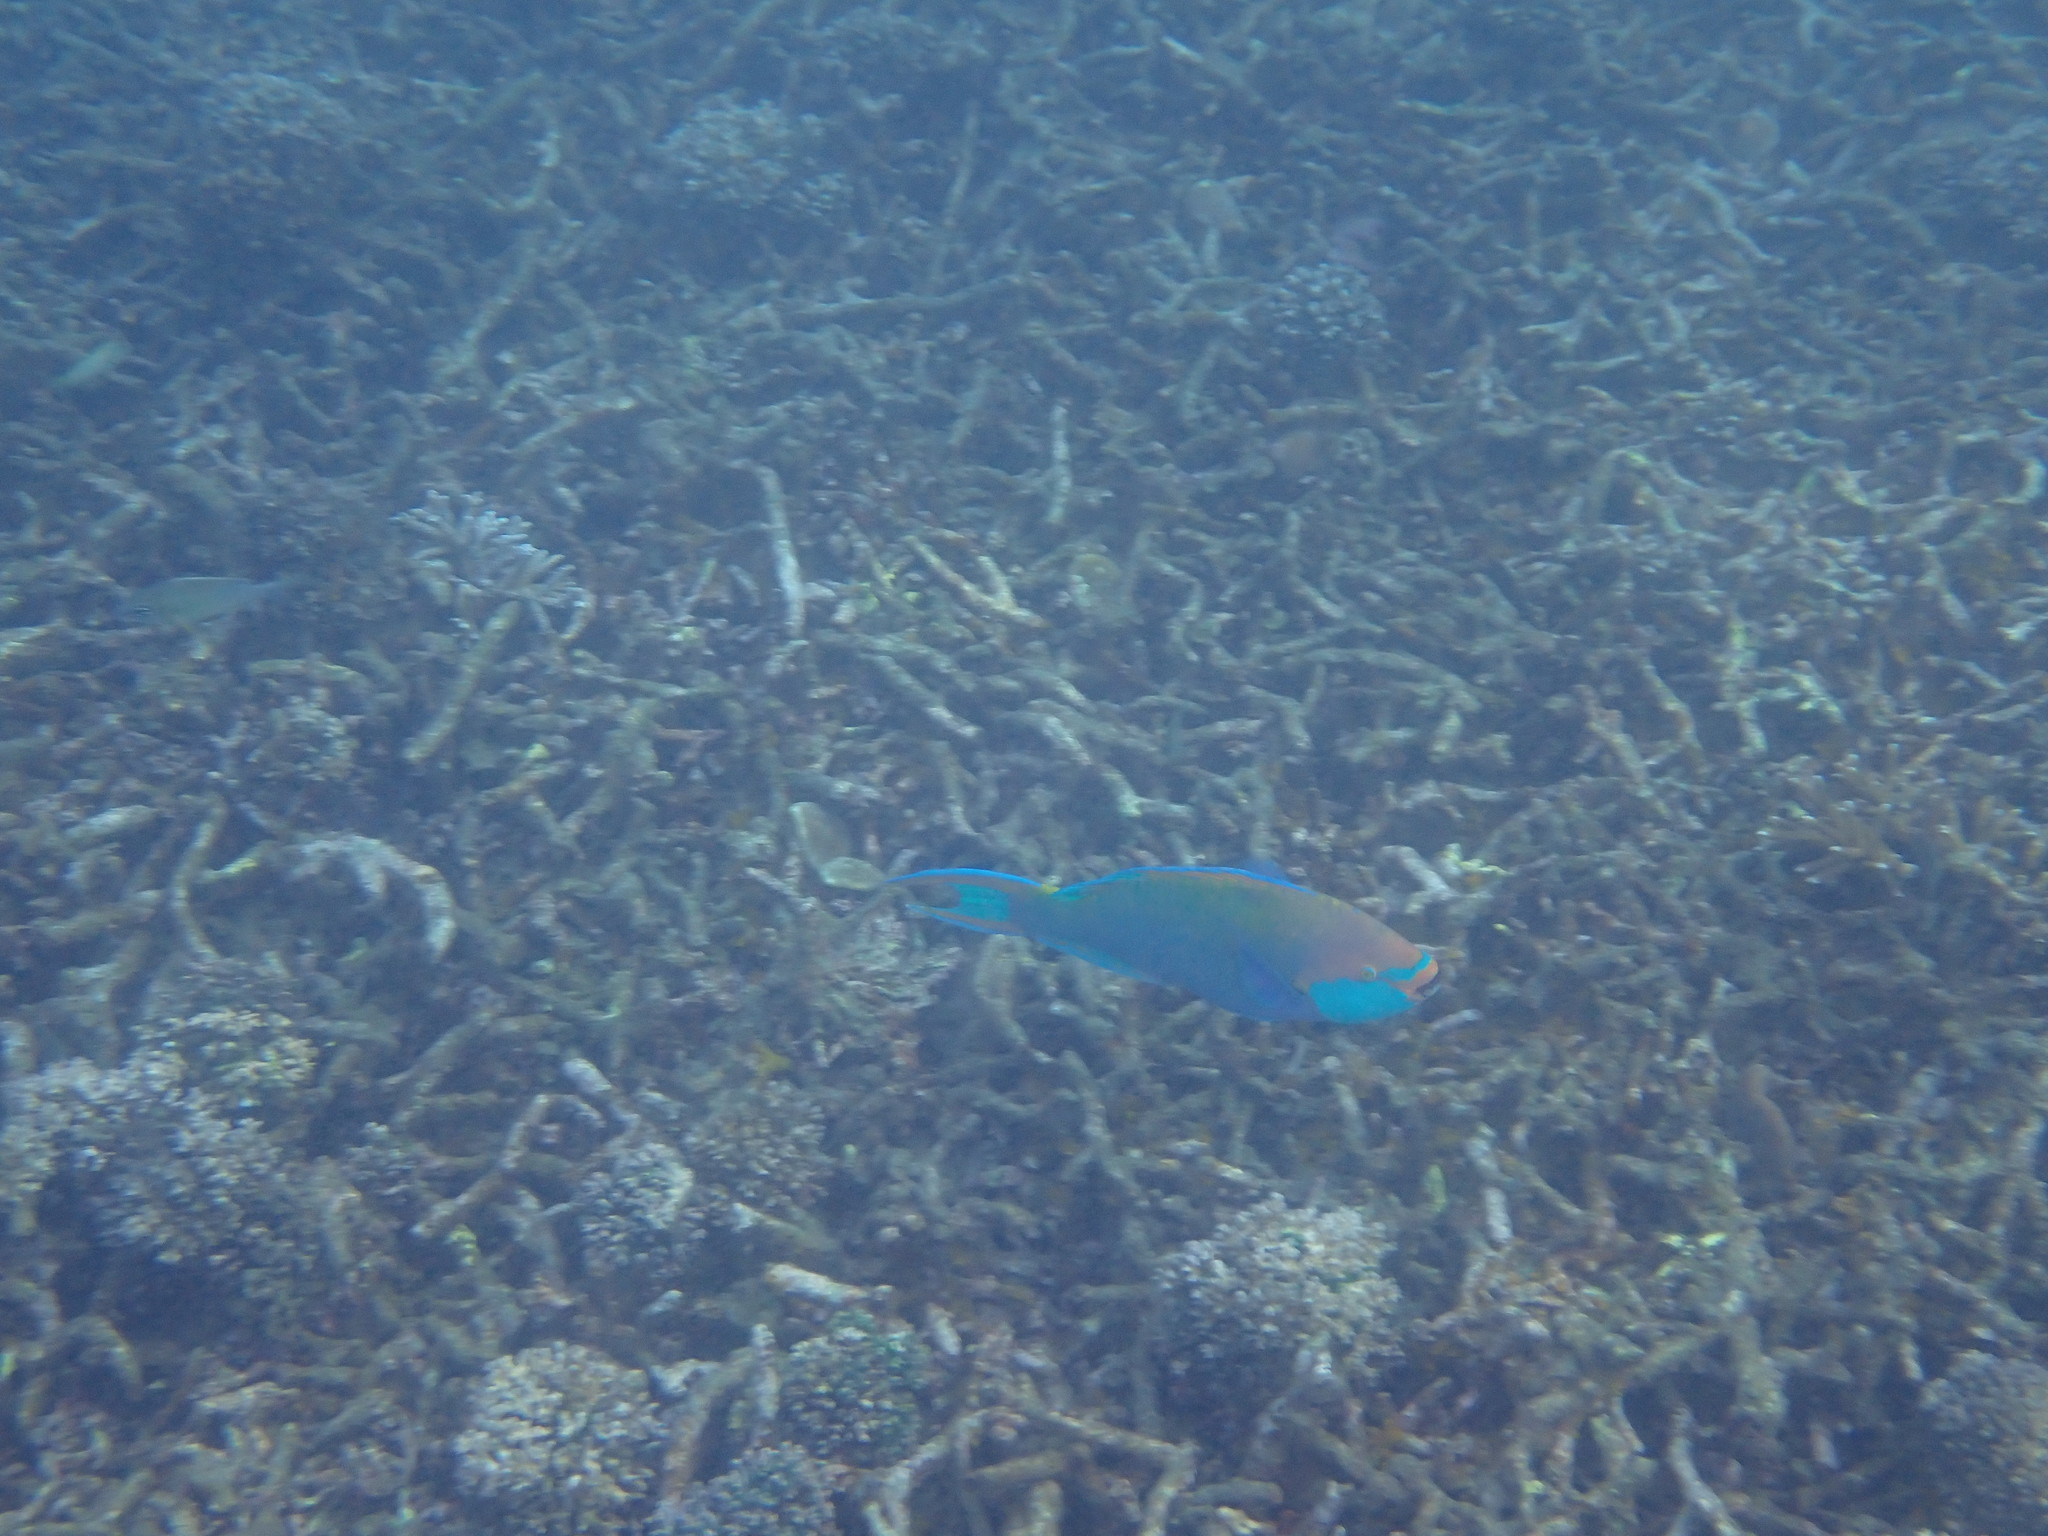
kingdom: Animalia
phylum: Chordata
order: Perciformes
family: Scaridae
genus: Scarus
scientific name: Scarus prasiognathos
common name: Singapore parrotfish
